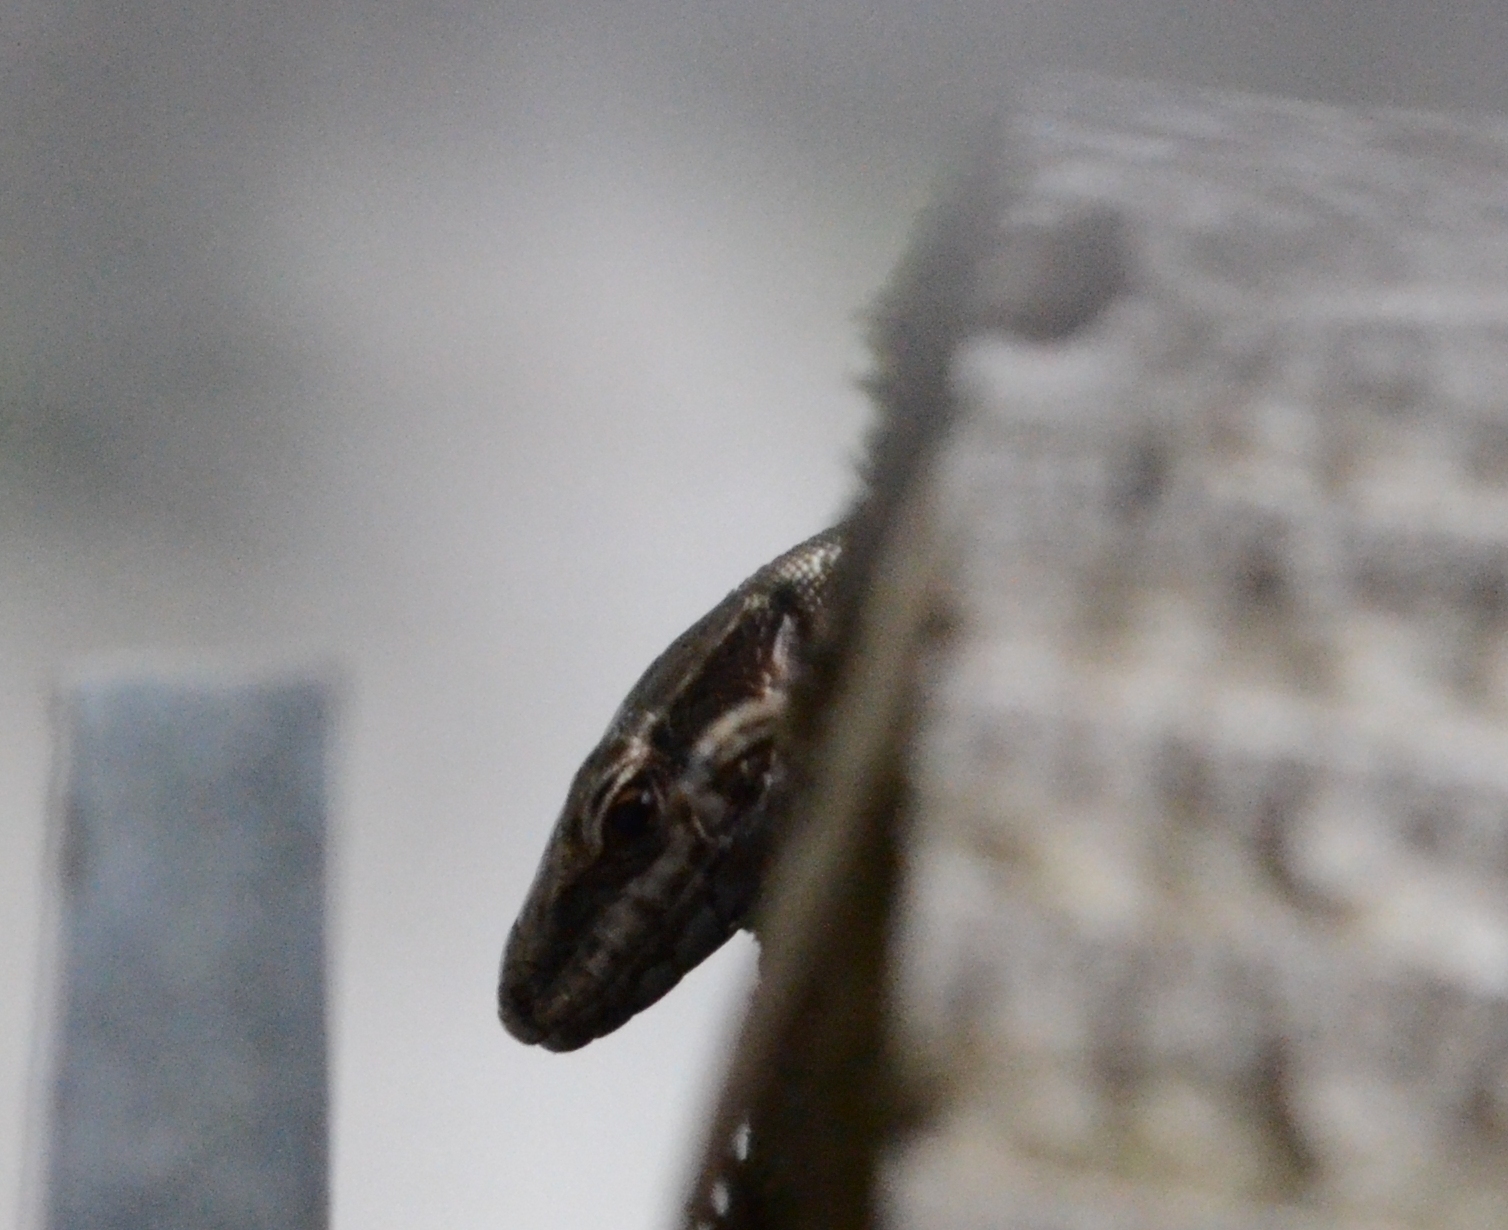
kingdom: Animalia
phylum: Chordata
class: Squamata
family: Lacertidae
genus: Podarcis
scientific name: Podarcis muralis
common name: Common wall lizard
